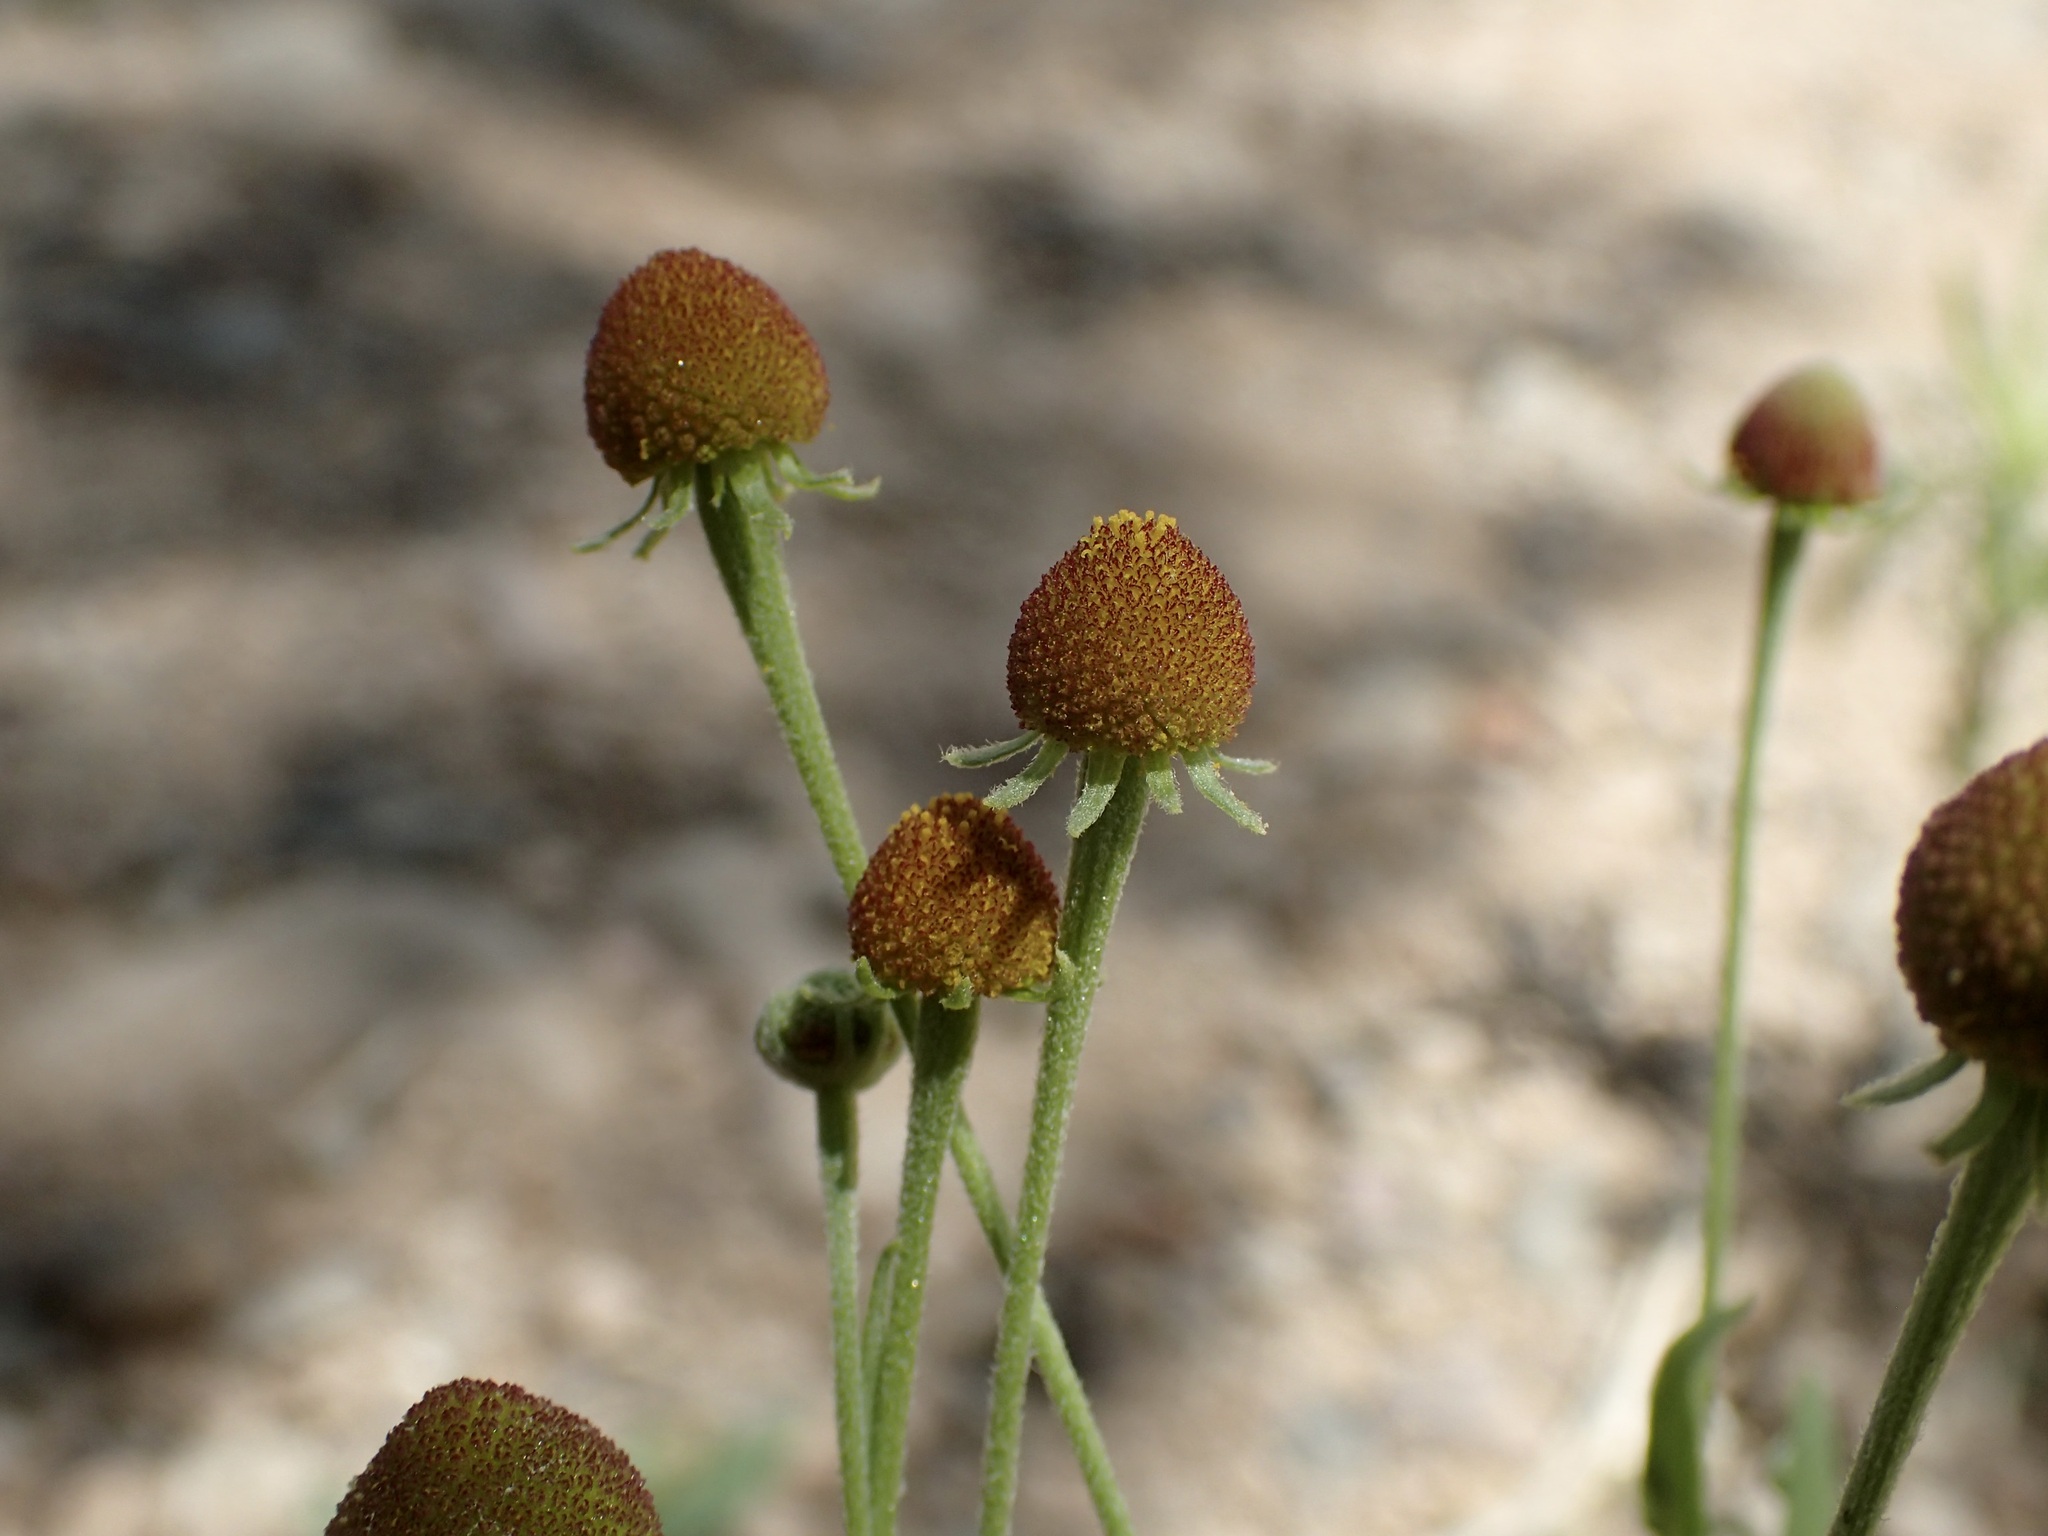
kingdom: Plantae
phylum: Tracheophyta
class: Magnoliopsida
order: Asterales
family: Asteraceae
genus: Helenium
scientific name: Helenium thurberi
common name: Thurber's sneezeweed
